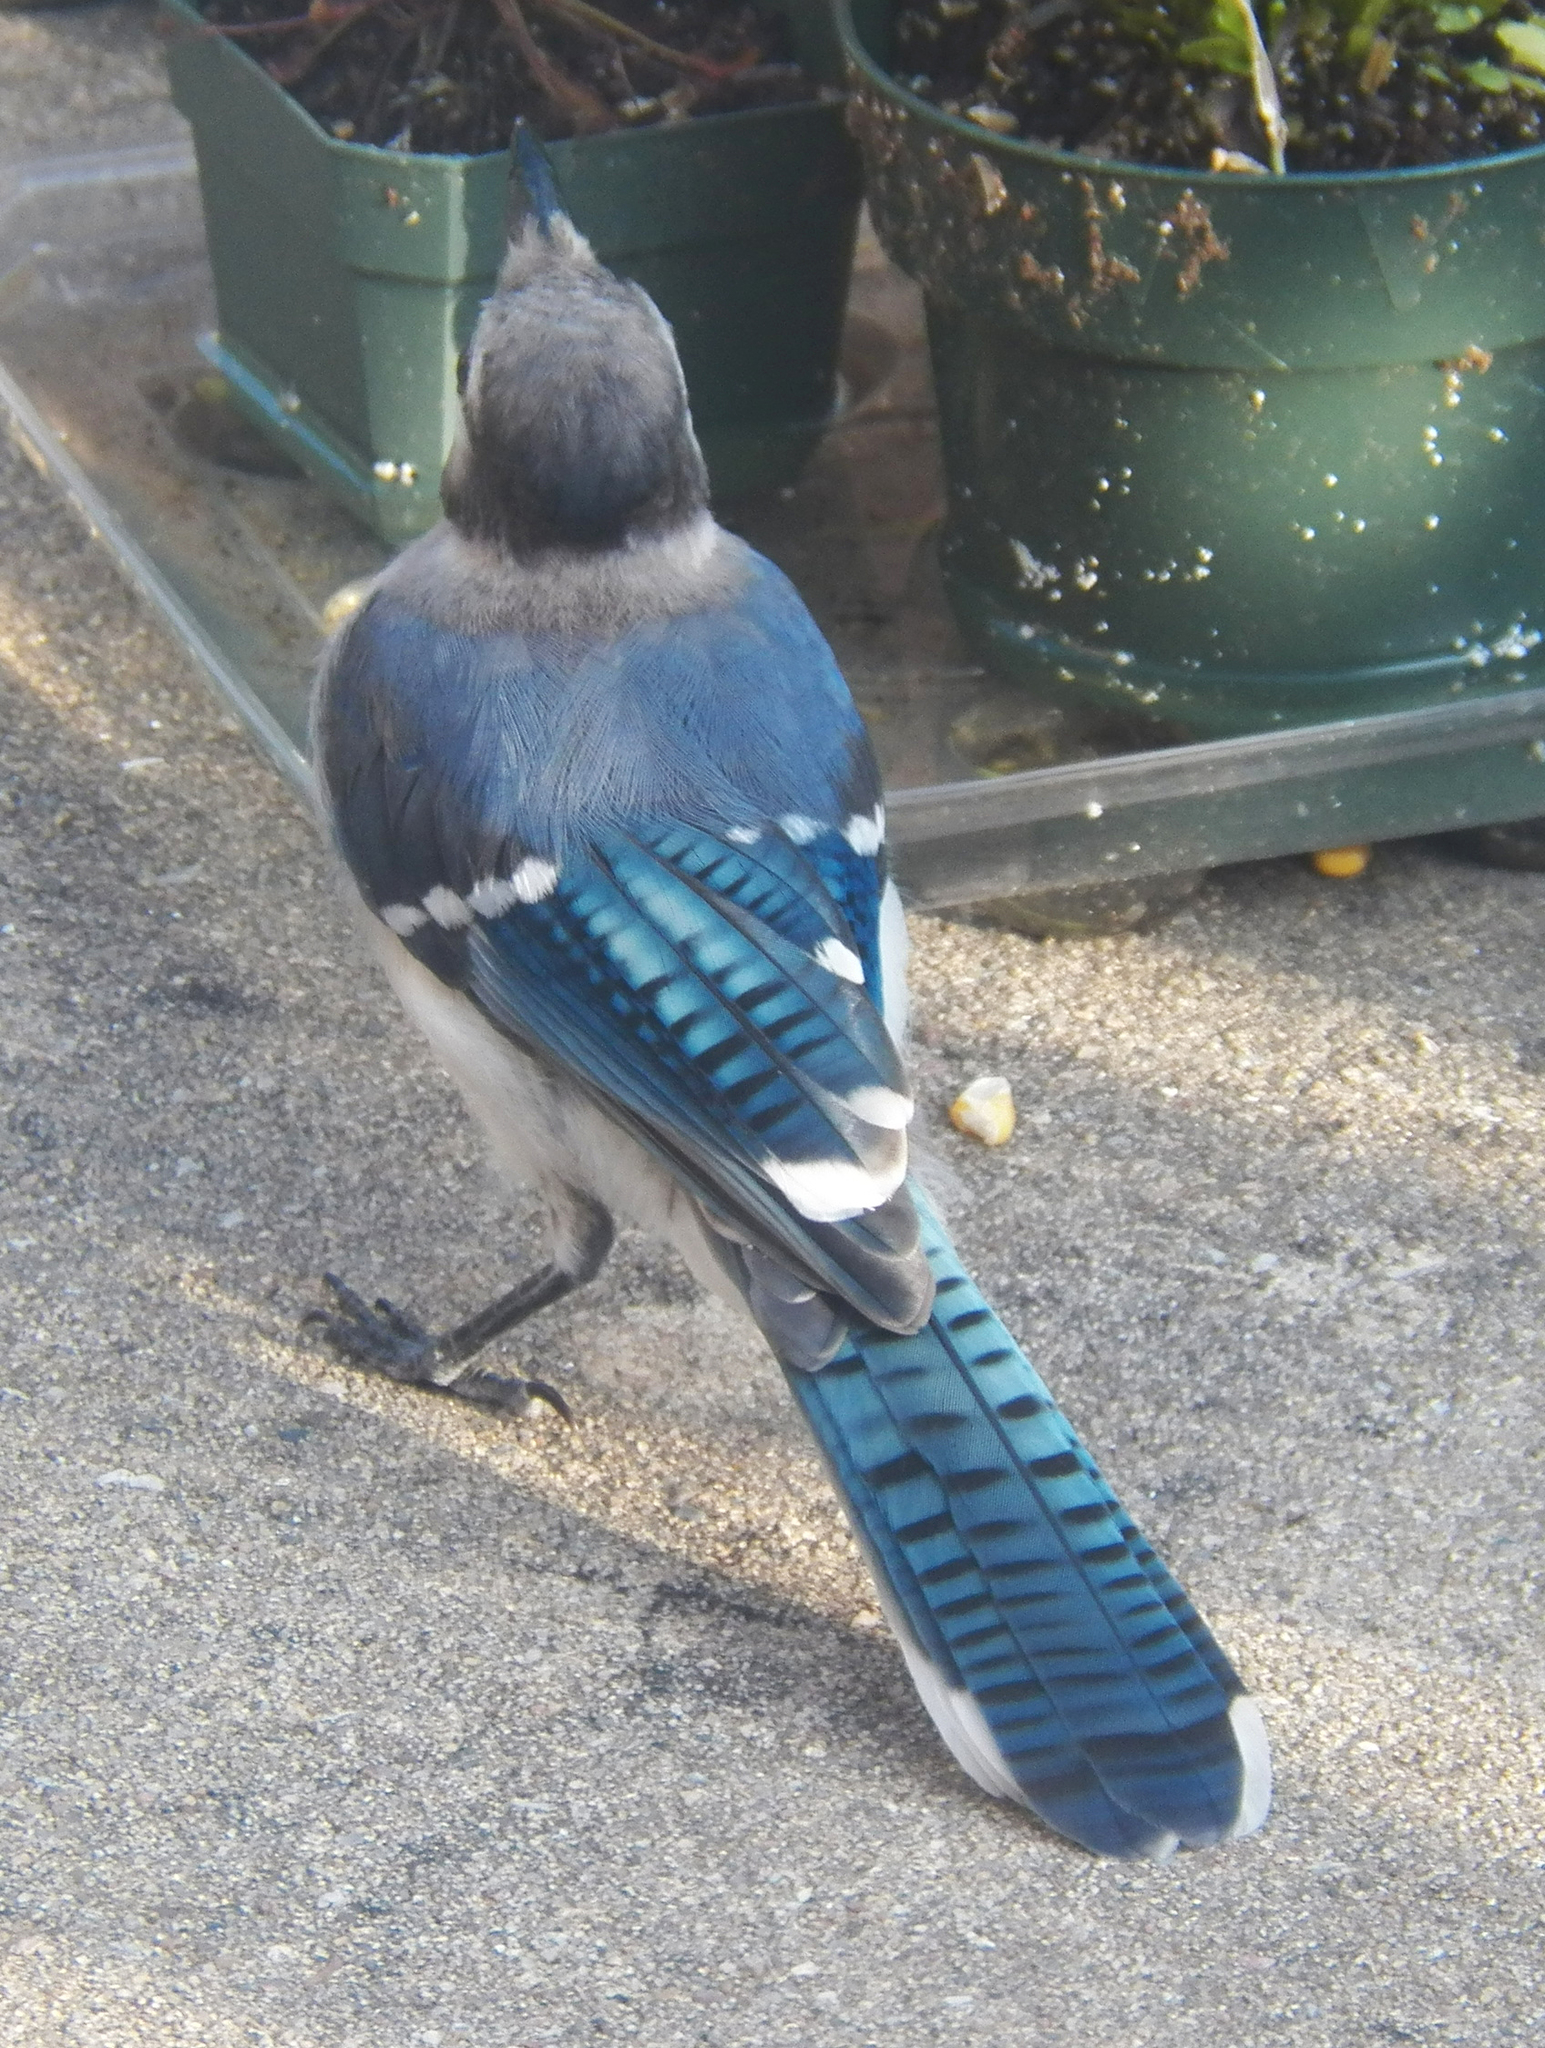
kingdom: Animalia
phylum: Chordata
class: Aves
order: Passeriformes
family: Corvidae
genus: Cyanocitta
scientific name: Cyanocitta cristata
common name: Blue jay
